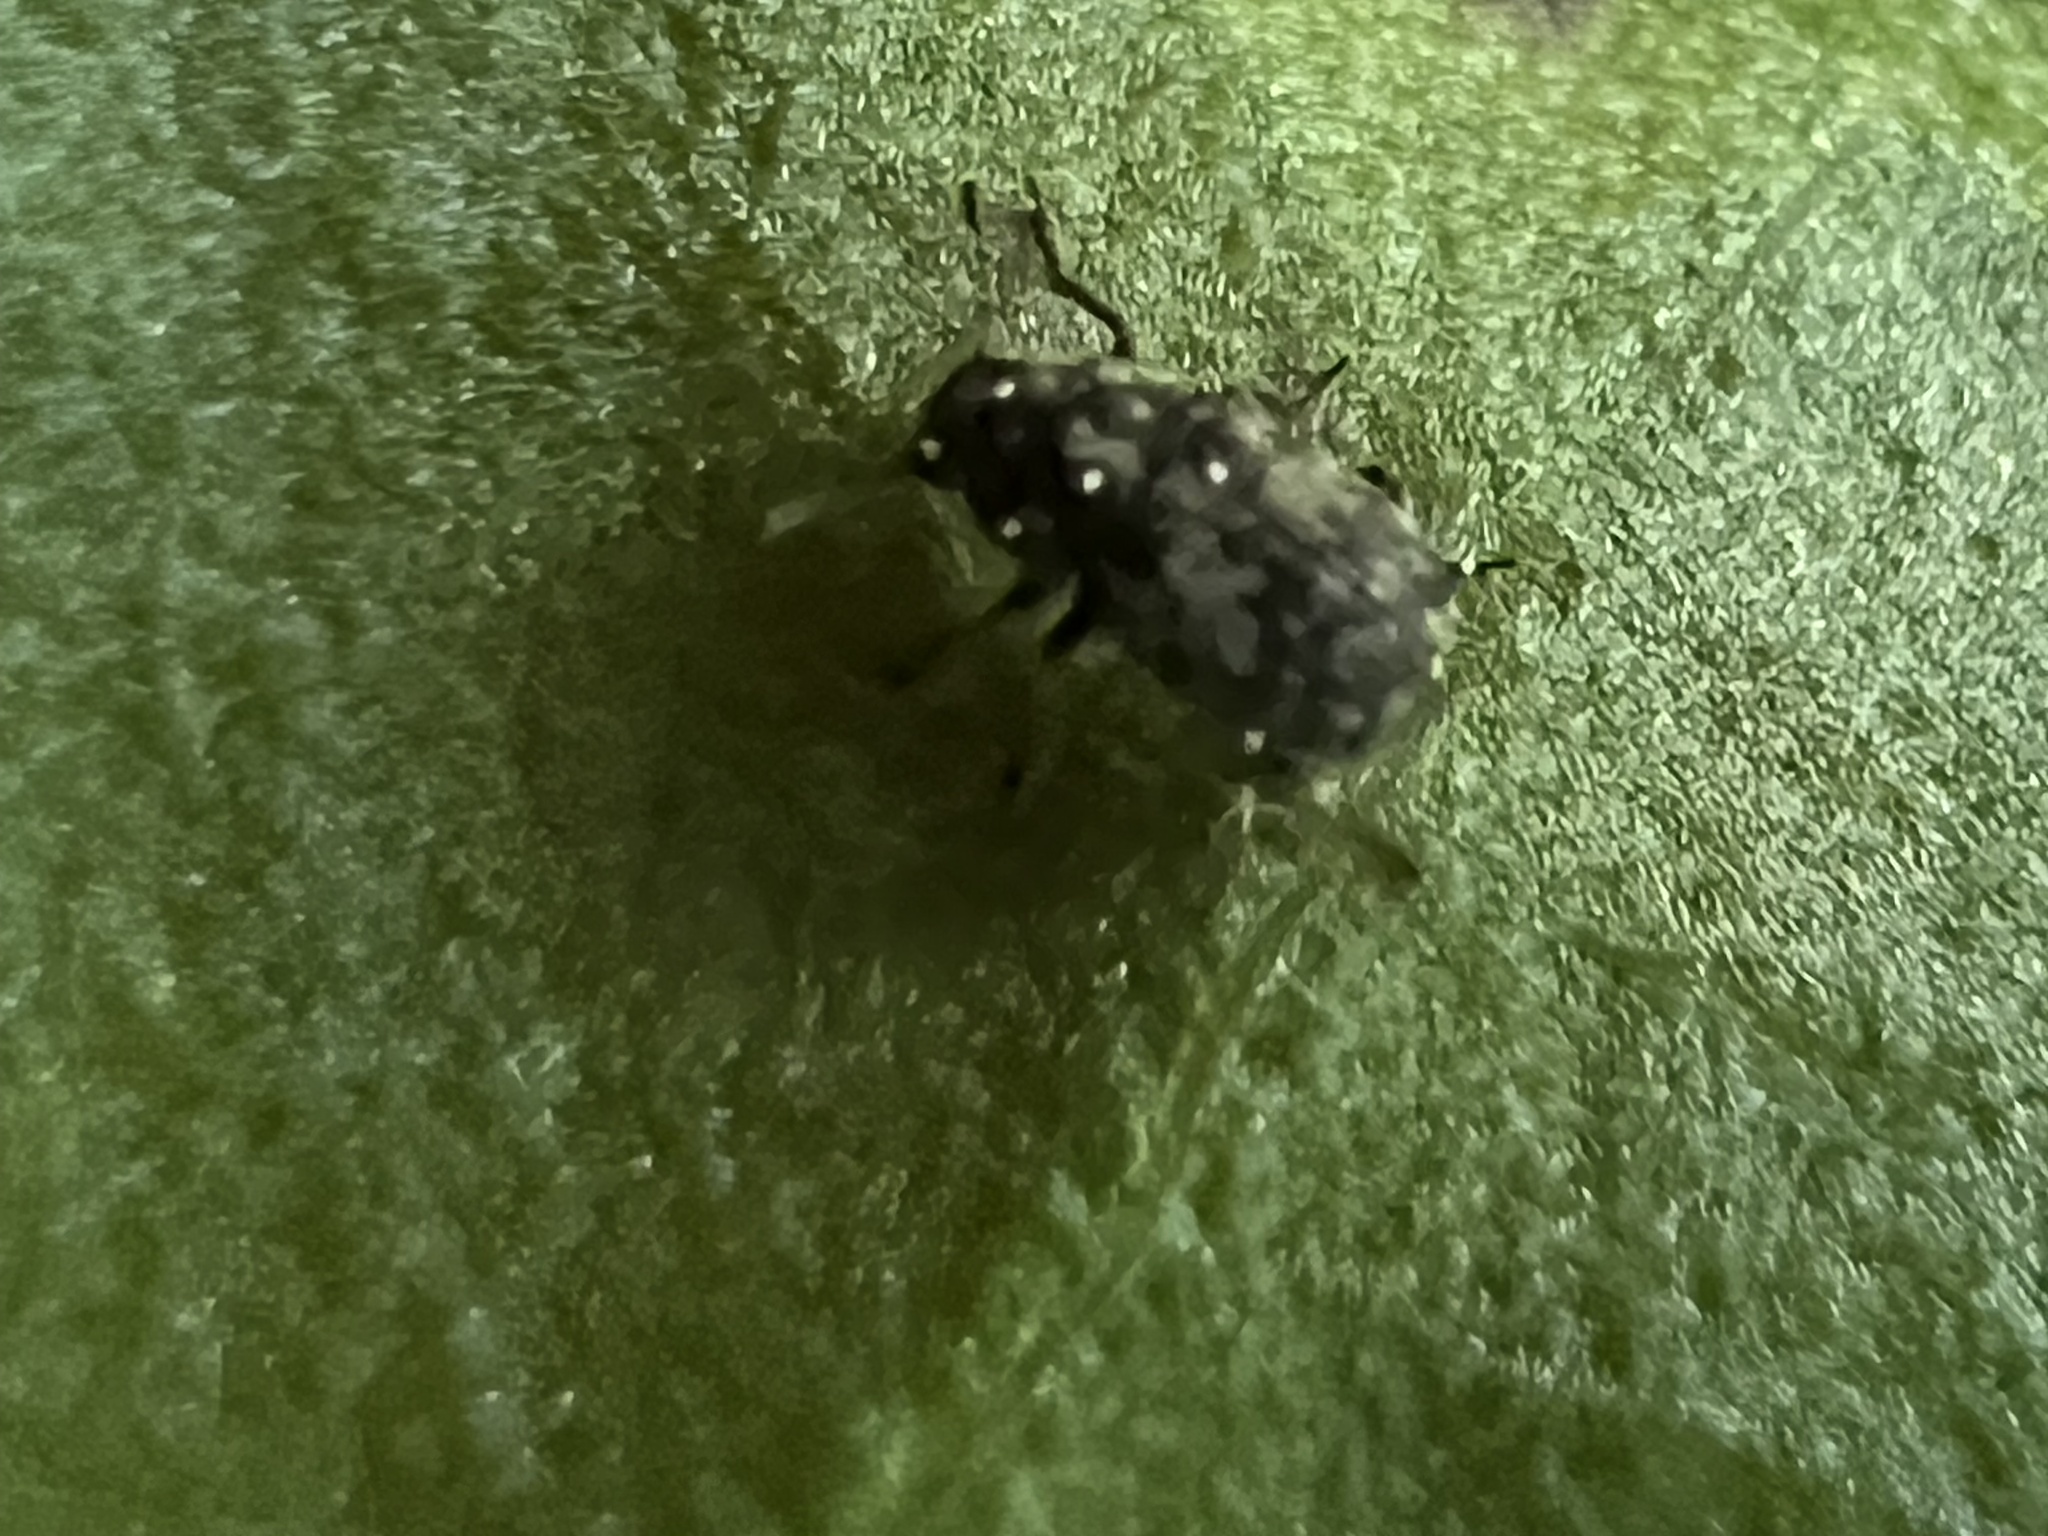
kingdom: Animalia
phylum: Arthropoda
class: Insecta
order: Coleoptera
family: Anthribidae
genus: Anthribus
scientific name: Anthribus nebulosus
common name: Fungus weevil
